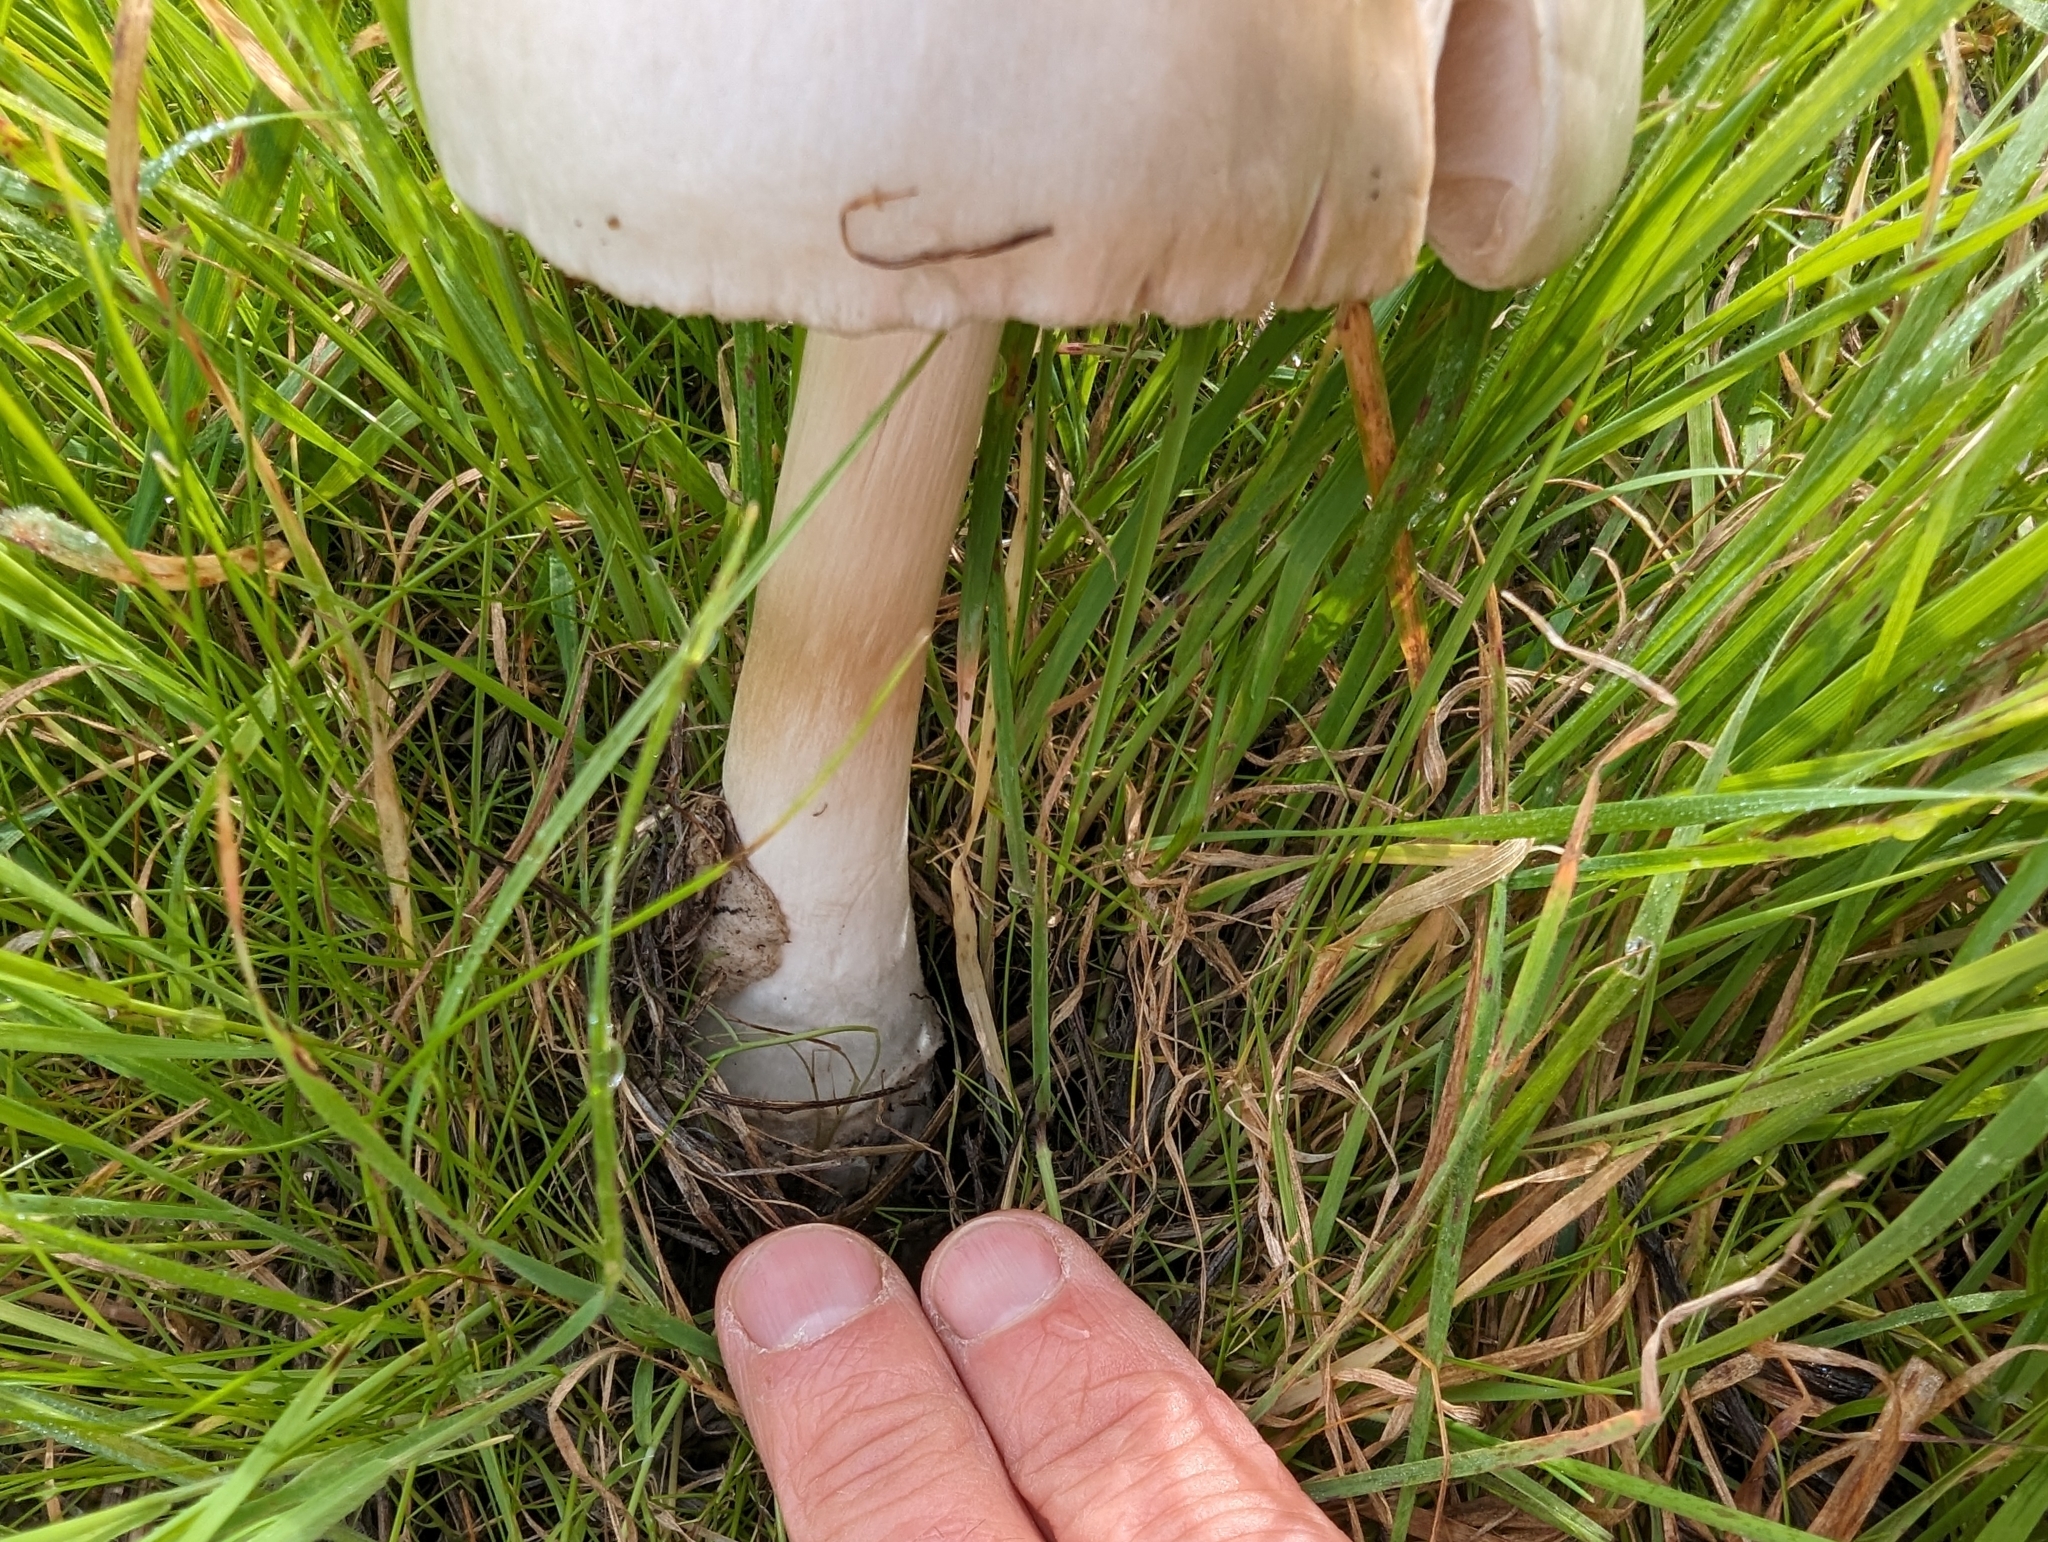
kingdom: Fungi
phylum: Basidiomycota
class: Agaricomycetes
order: Agaricales
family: Pluteaceae
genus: Volvopluteus
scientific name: Volvopluteus gloiocephalus
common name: Stubble rosegill
